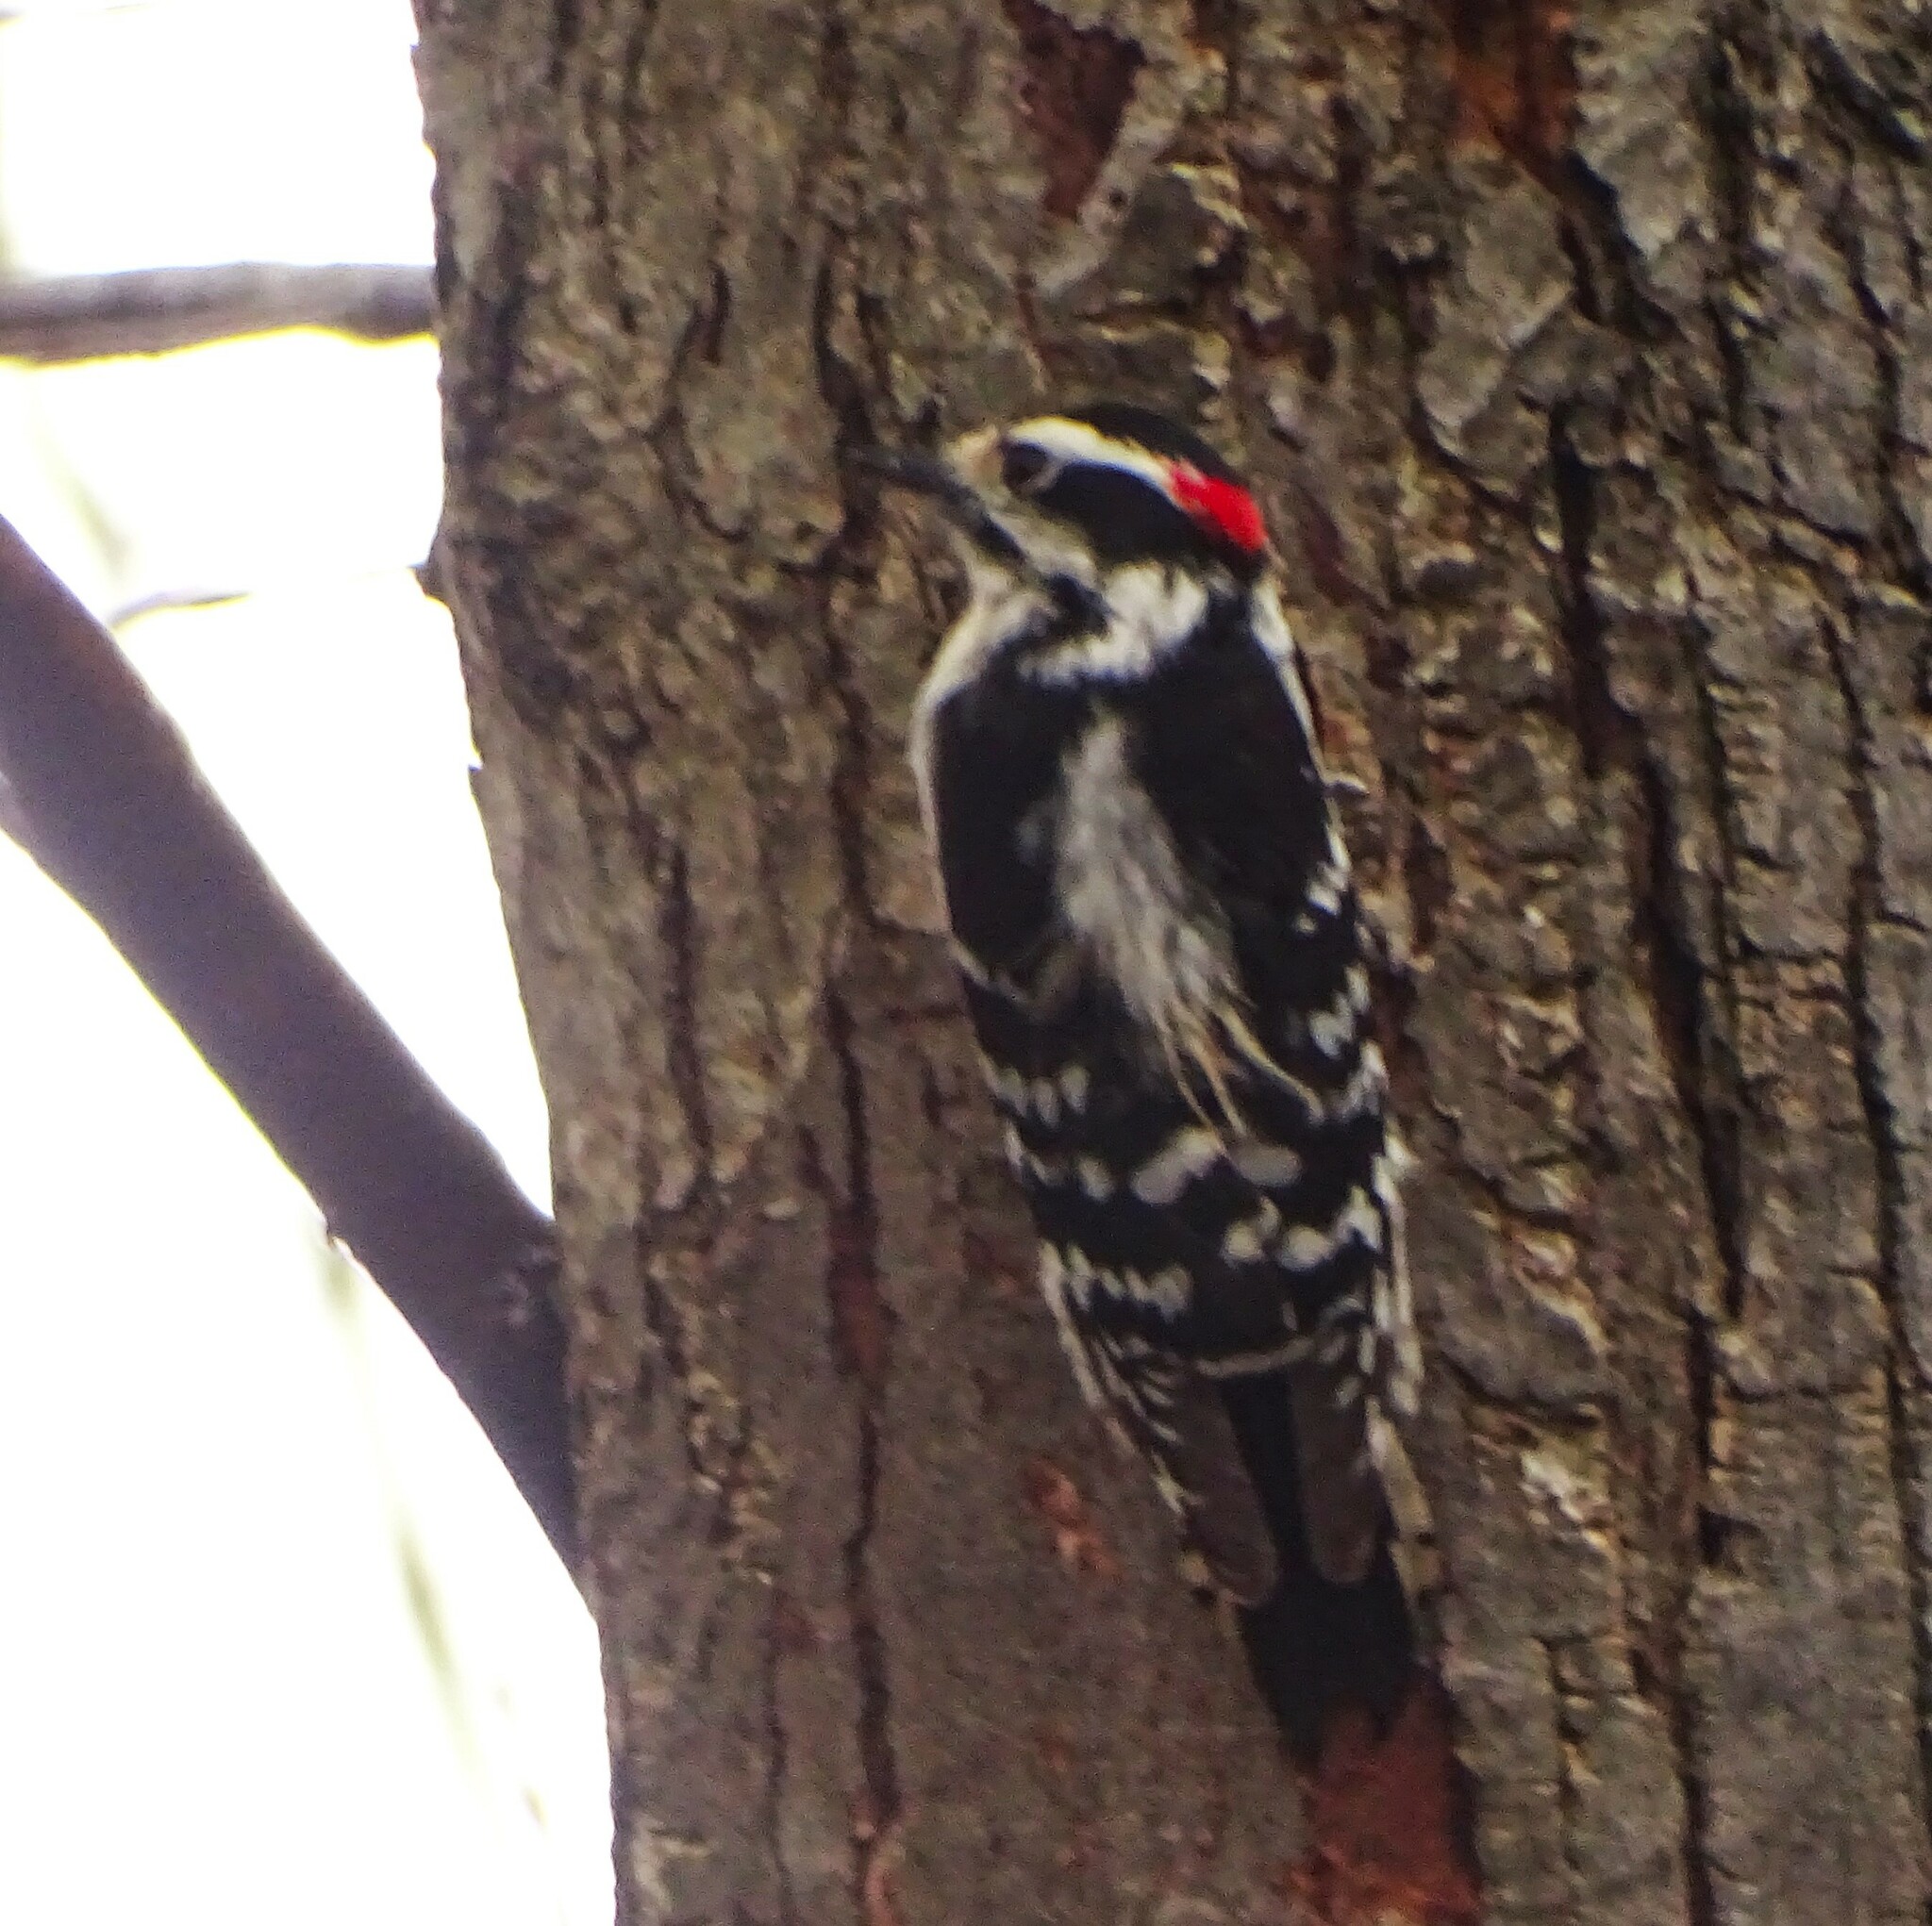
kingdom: Animalia
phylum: Chordata
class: Aves
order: Piciformes
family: Picidae
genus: Dryobates
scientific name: Dryobates pubescens
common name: Downy woodpecker
